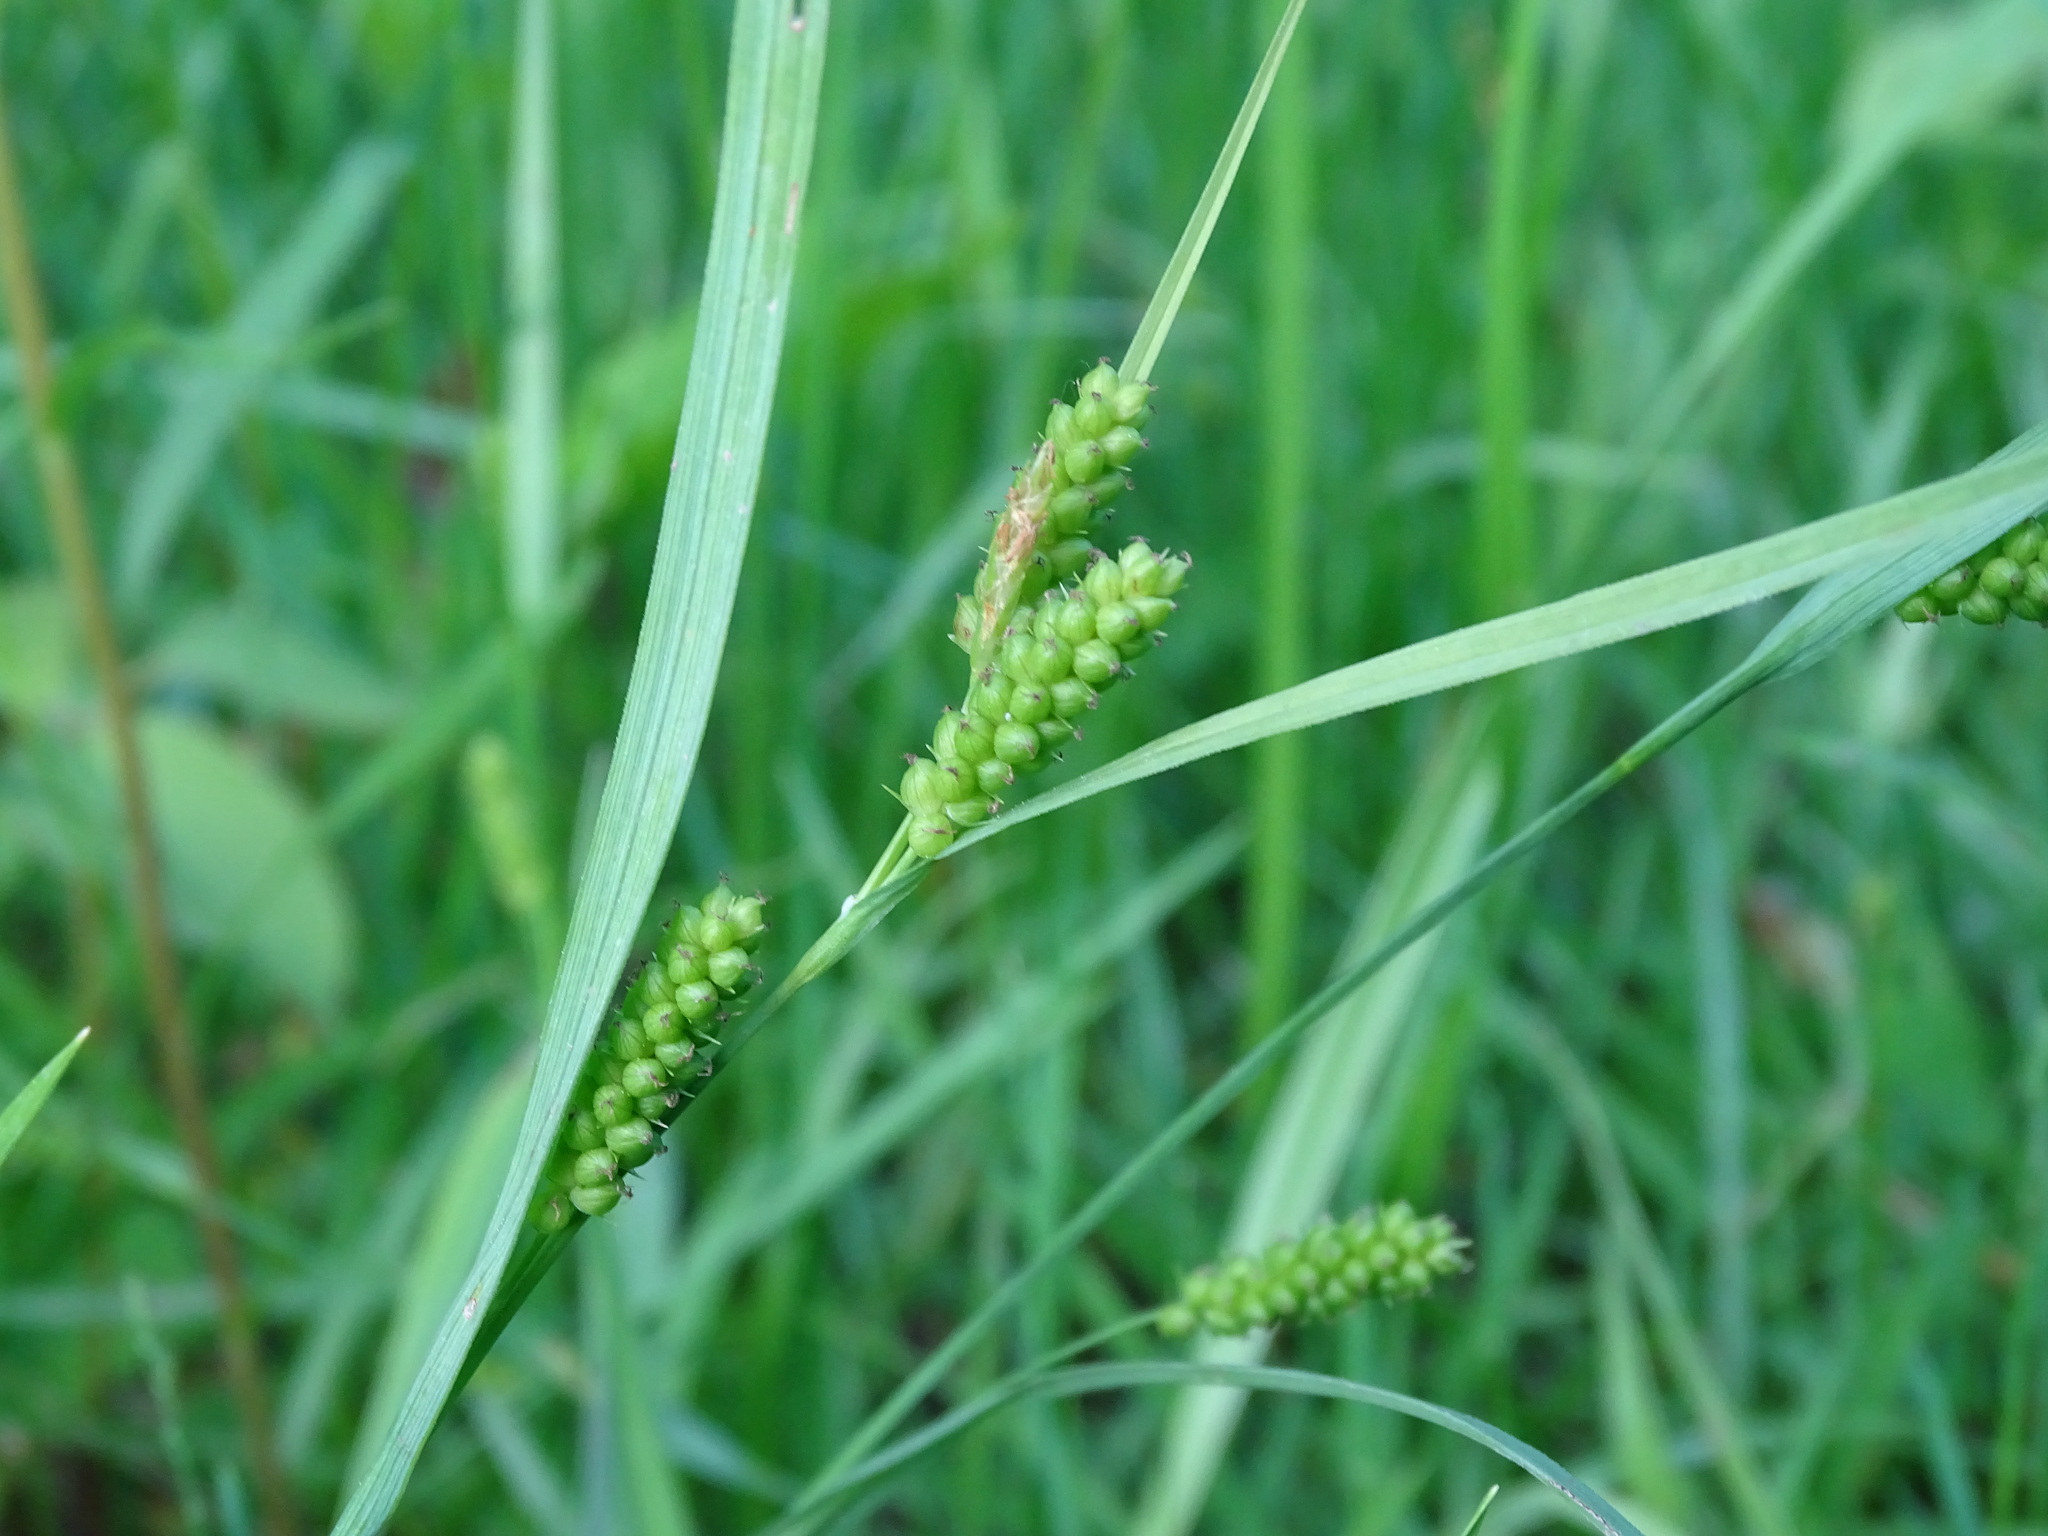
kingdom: Plantae
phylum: Tracheophyta
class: Liliopsida
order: Poales
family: Cyperaceae
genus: Carex
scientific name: Carex granularis
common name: Granular sedge
